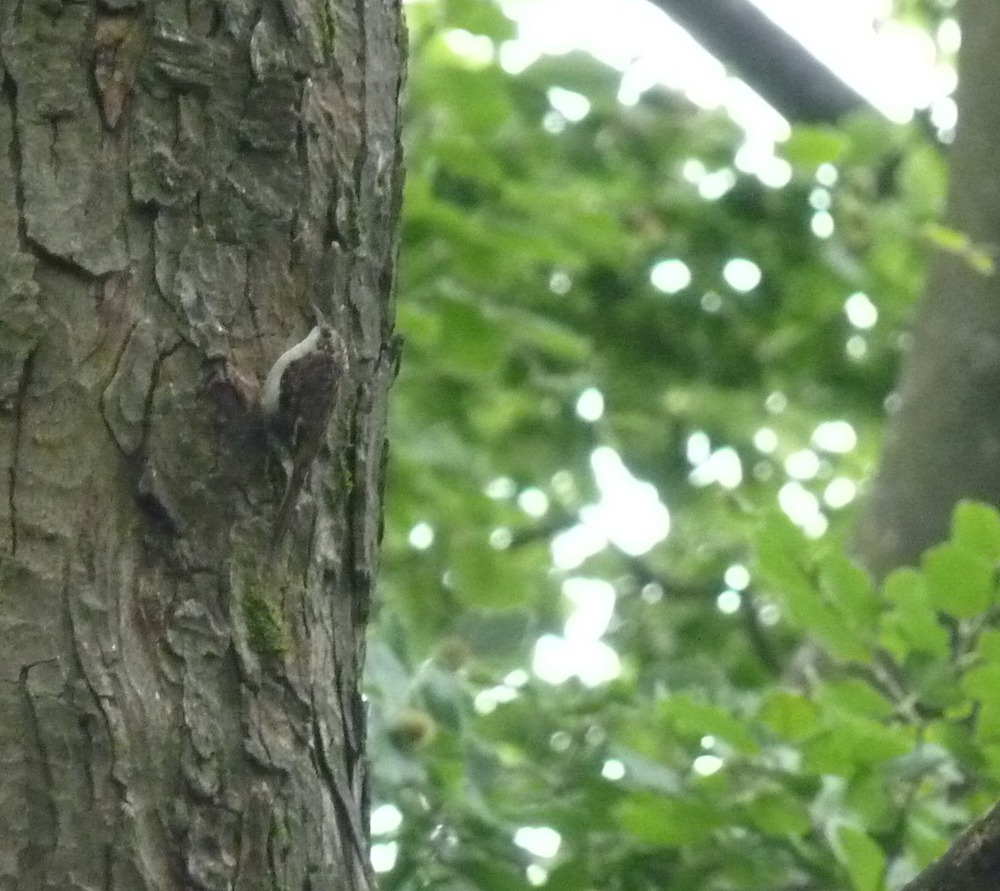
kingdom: Animalia
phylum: Chordata
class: Aves
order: Passeriformes
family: Certhiidae
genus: Certhia
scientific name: Certhia familiaris
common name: Eurasian treecreeper
